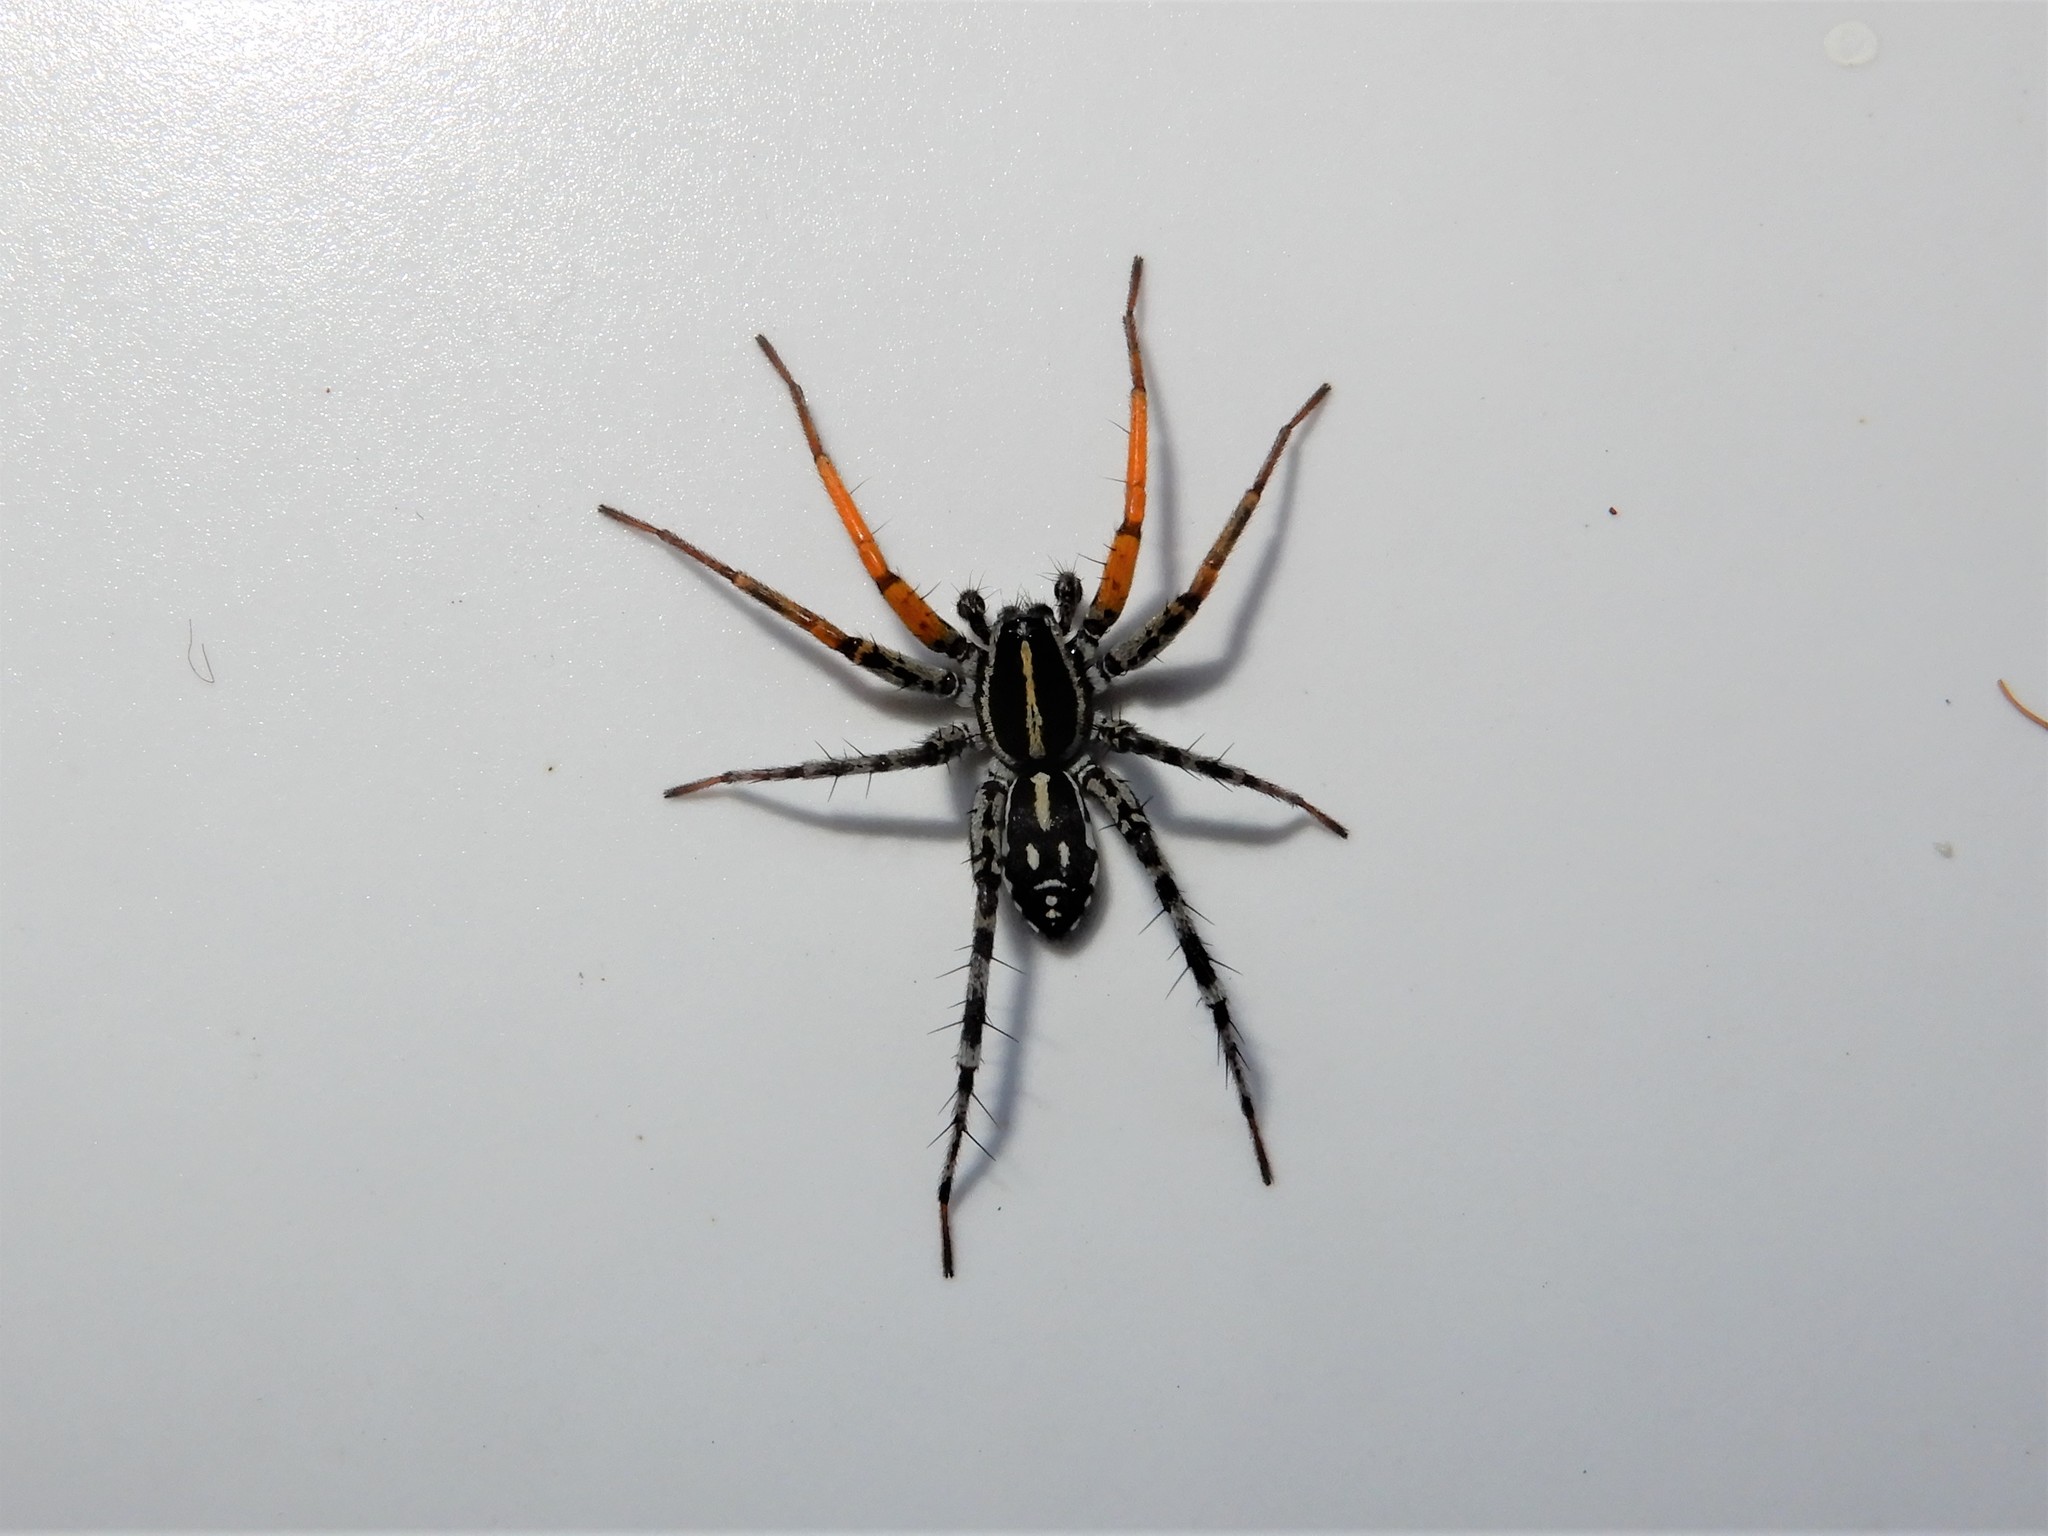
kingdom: Animalia
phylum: Arthropoda
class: Arachnida
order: Araneae
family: Corinnidae
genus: Nyssus
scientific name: Nyssus coloripes
